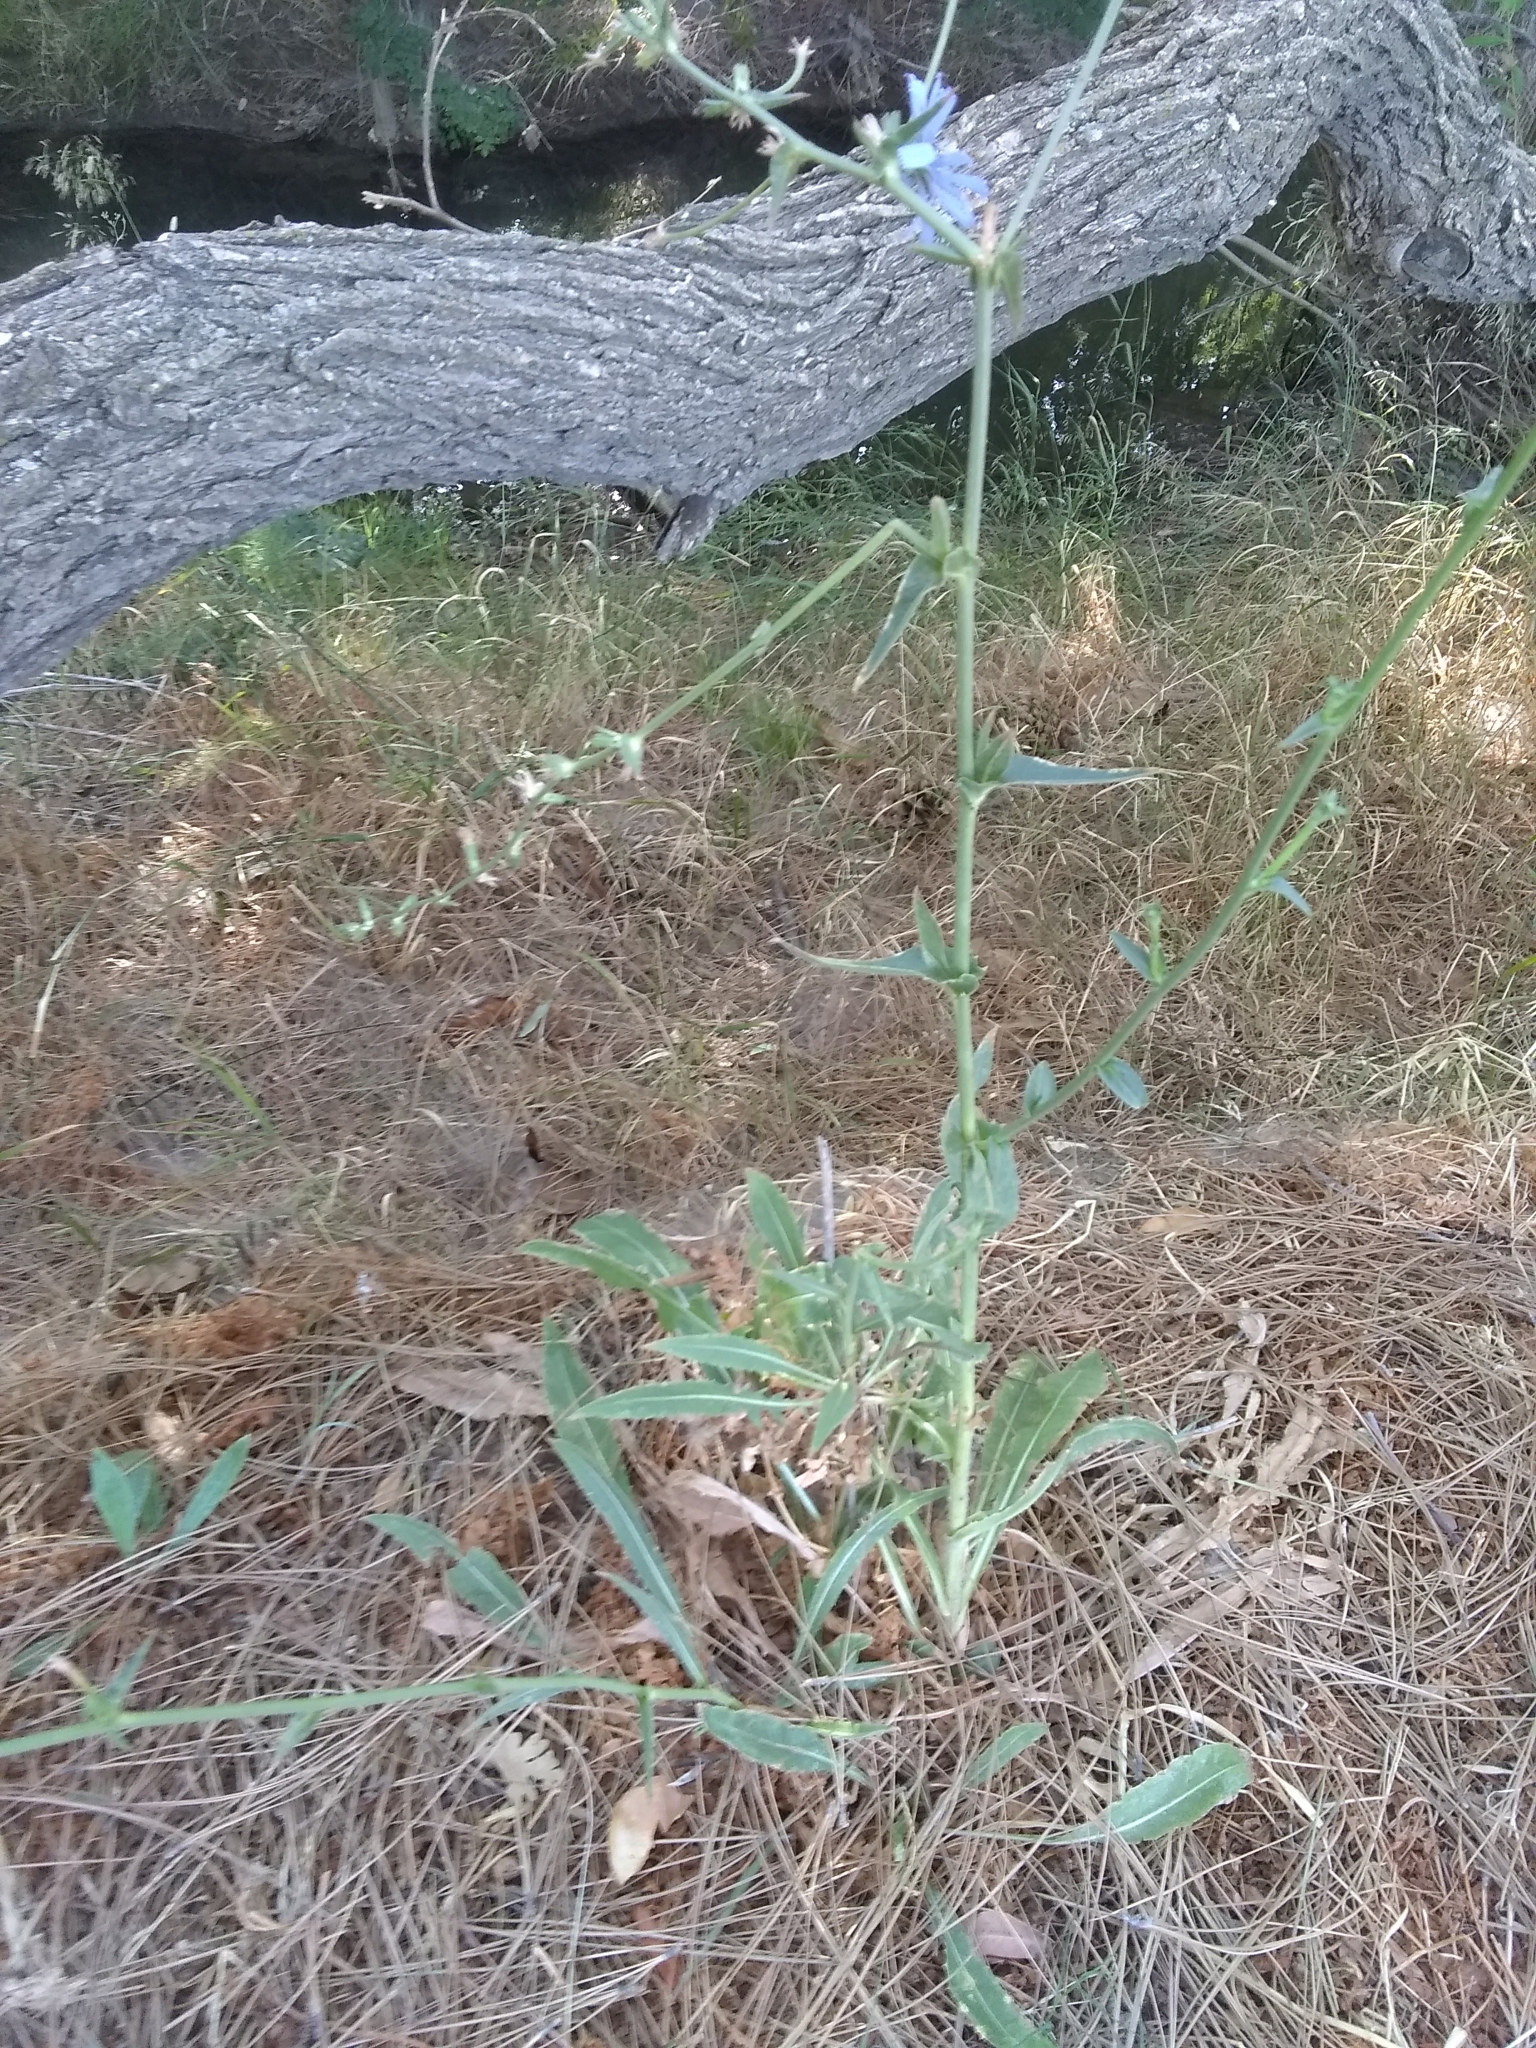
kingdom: Plantae
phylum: Tracheophyta
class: Magnoliopsida
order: Asterales
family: Asteraceae
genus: Cichorium
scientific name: Cichorium intybus
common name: Chicory
